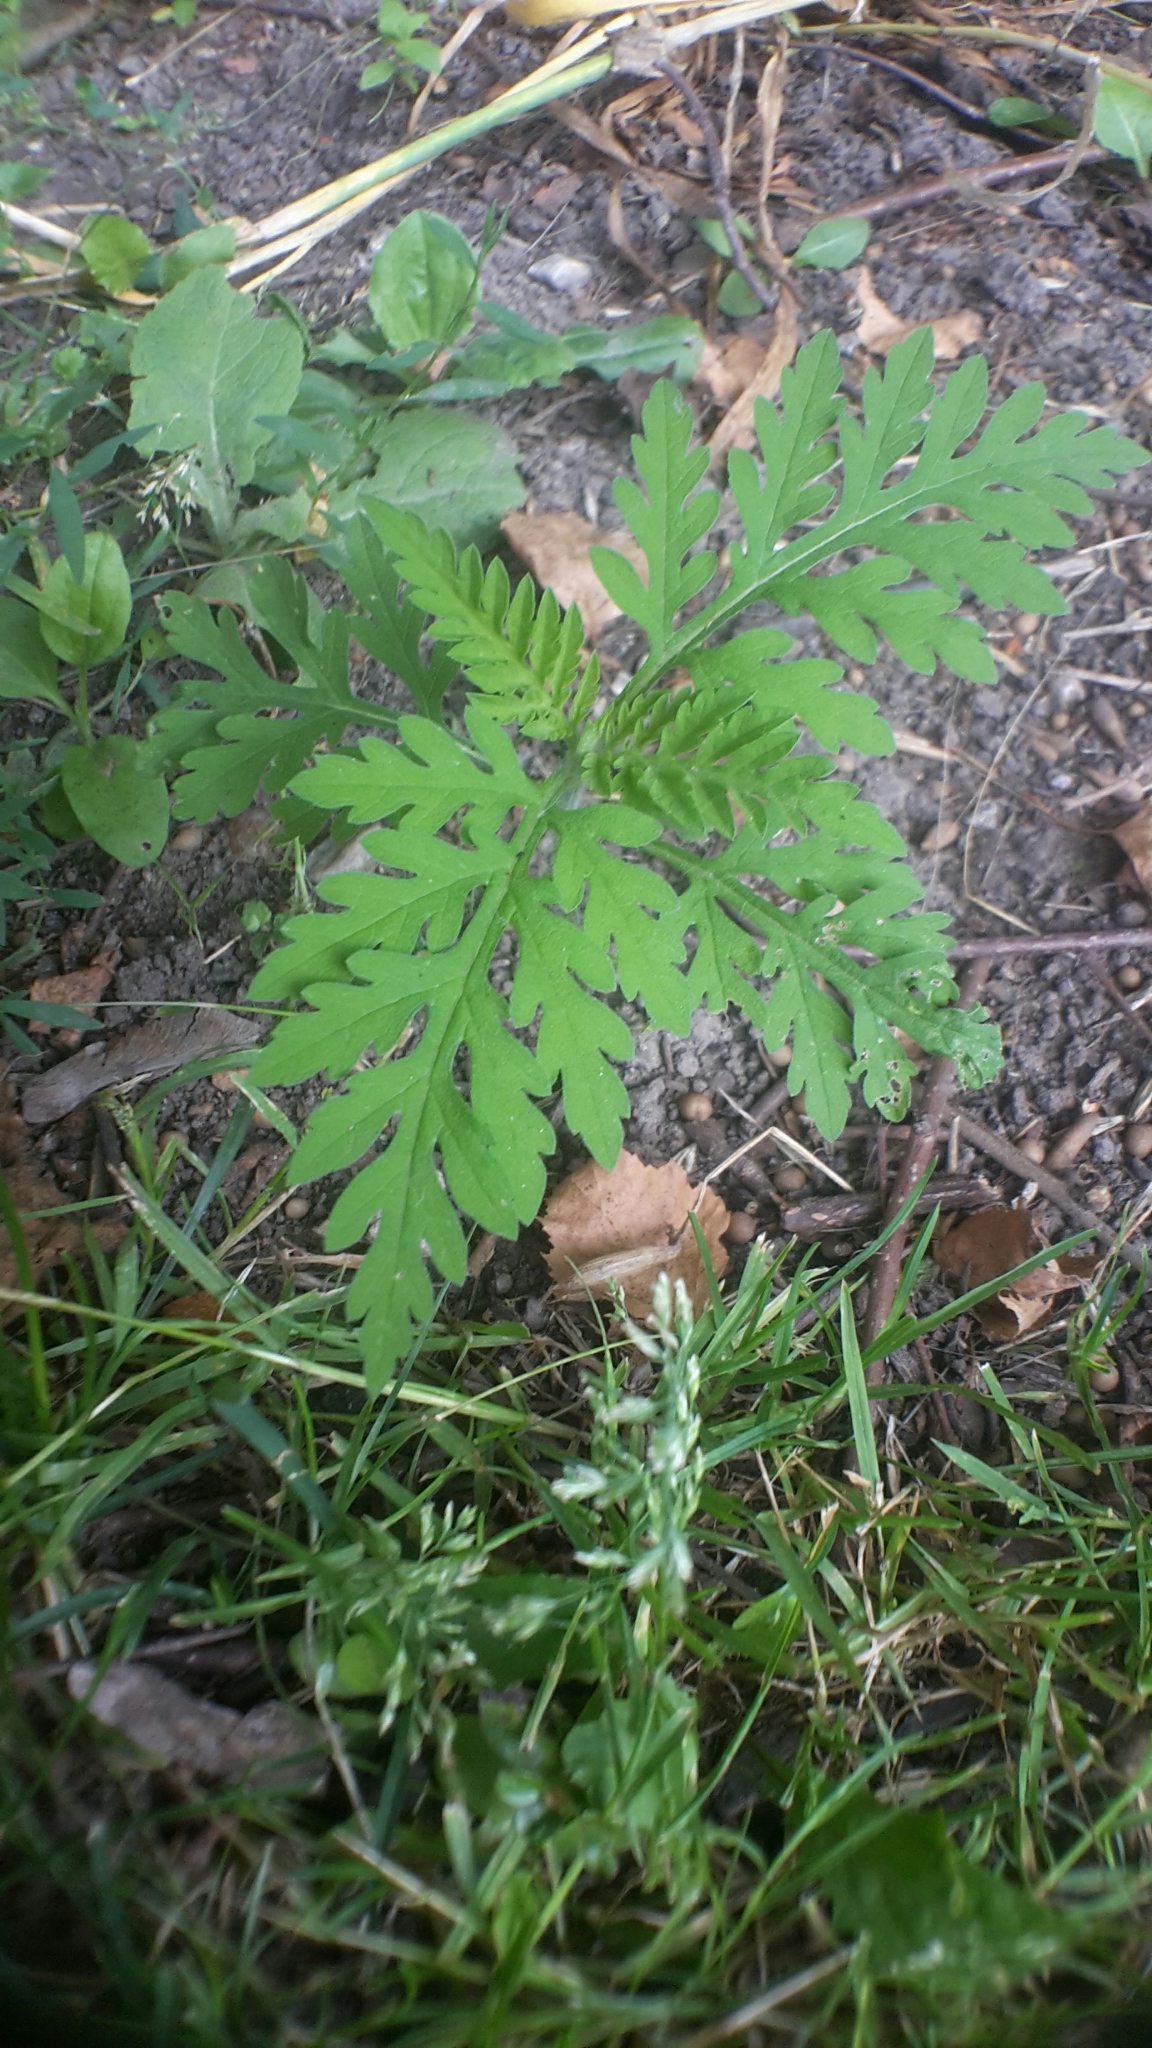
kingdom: Plantae
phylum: Tracheophyta
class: Magnoliopsida
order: Asterales
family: Asteraceae
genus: Ambrosia
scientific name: Ambrosia artemisiifolia
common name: Annual ragweed
